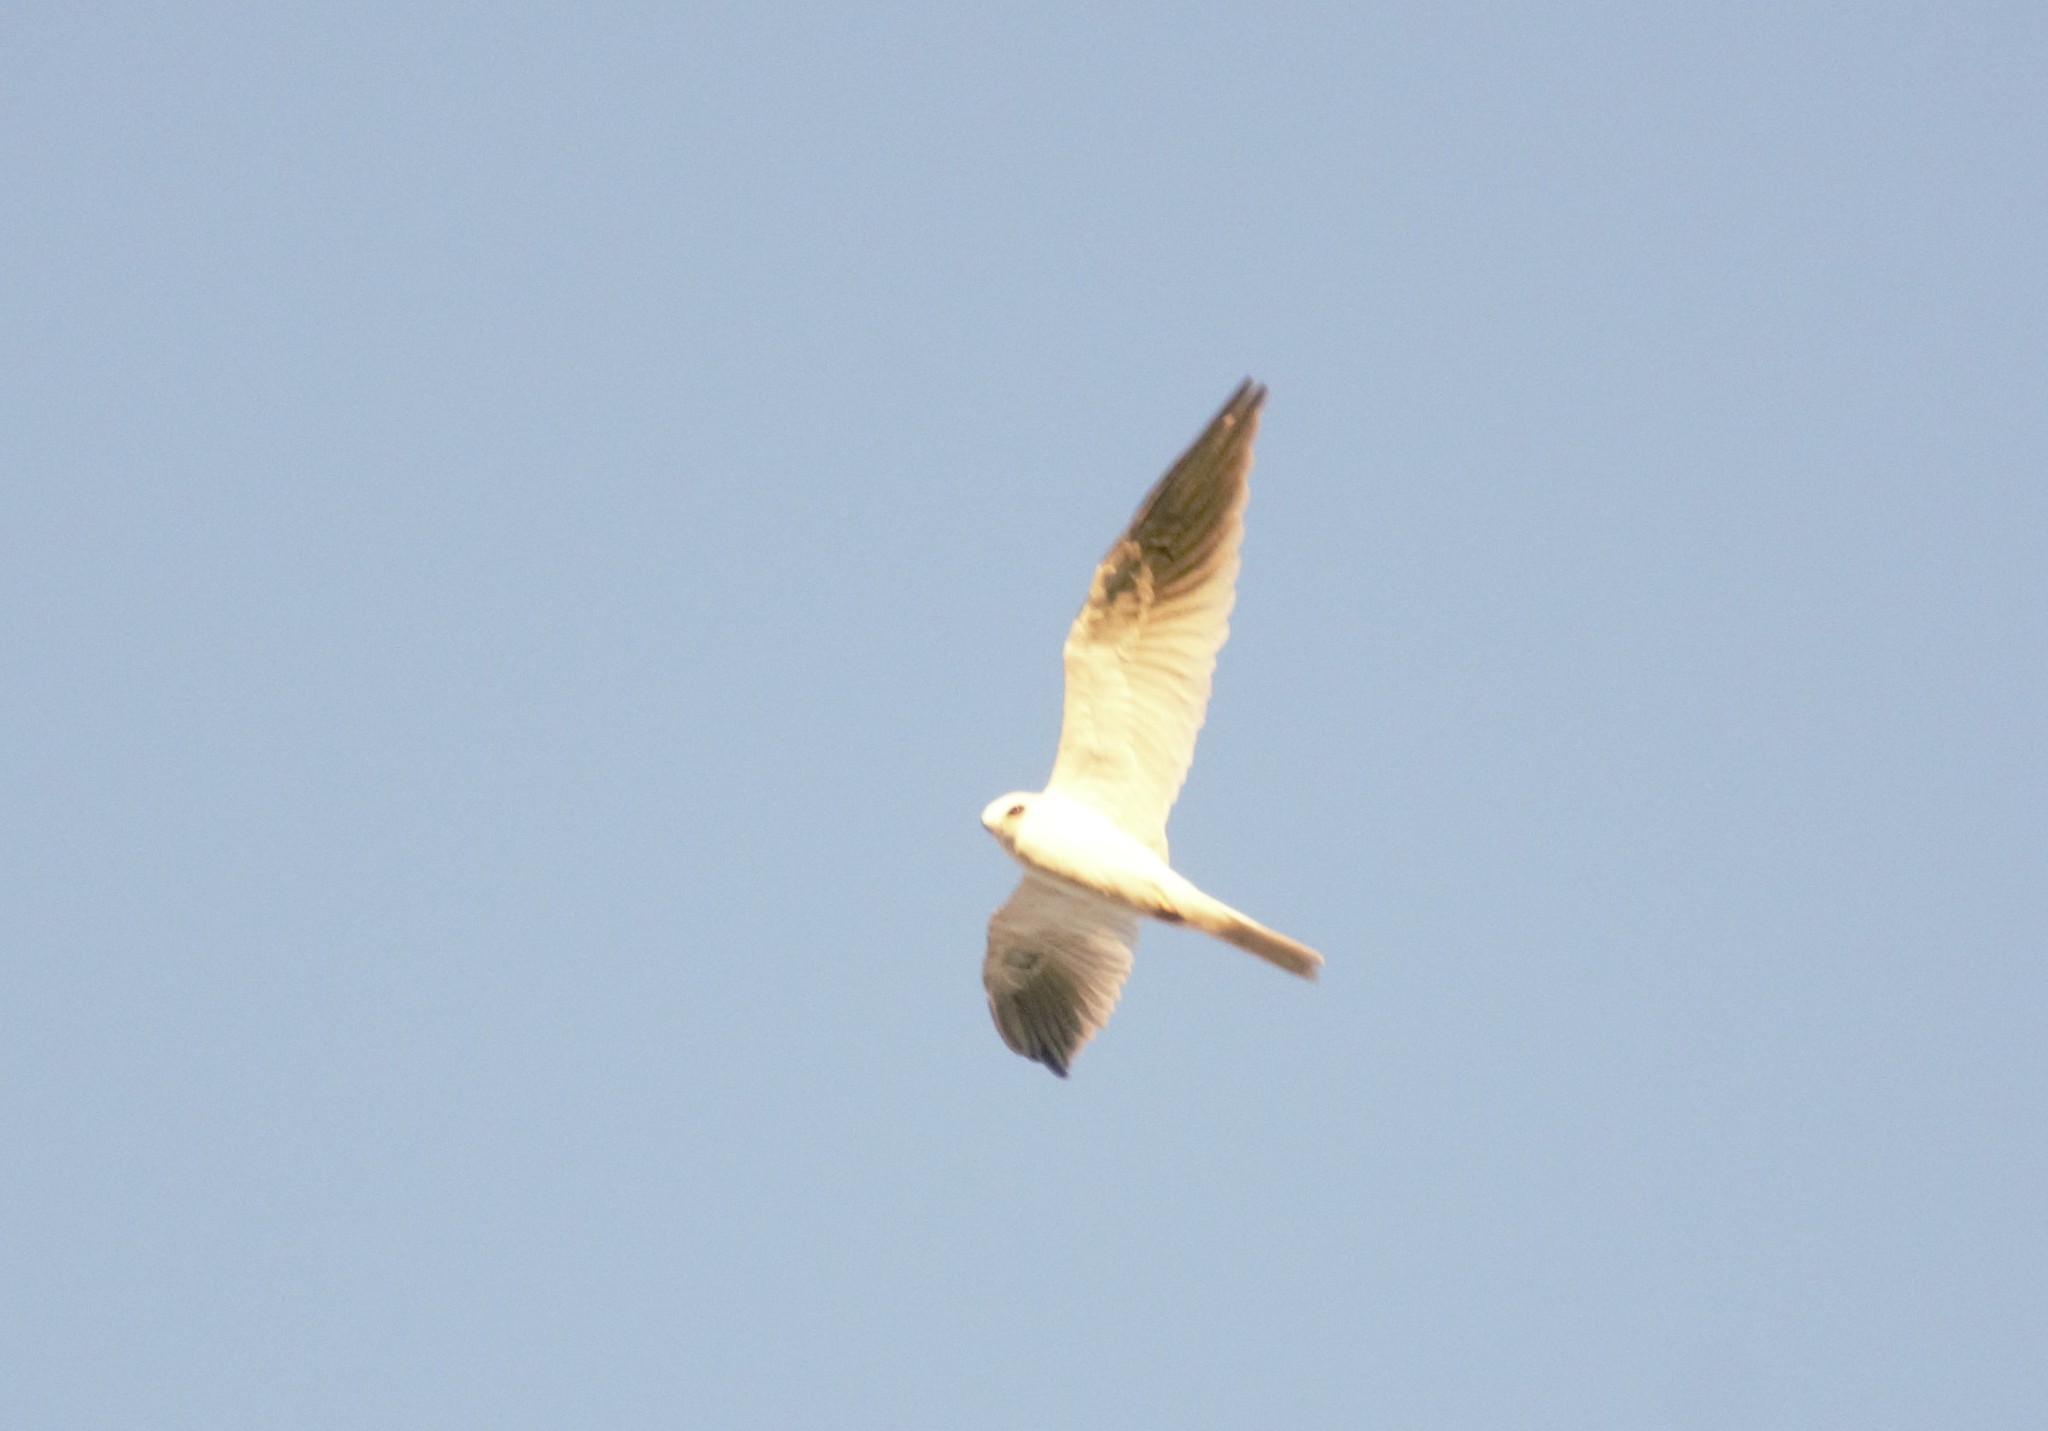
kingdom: Animalia
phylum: Chordata
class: Aves
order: Accipitriformes
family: Accipitridae
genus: Elanus
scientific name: Elanus leucurus
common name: White-tailed kite
